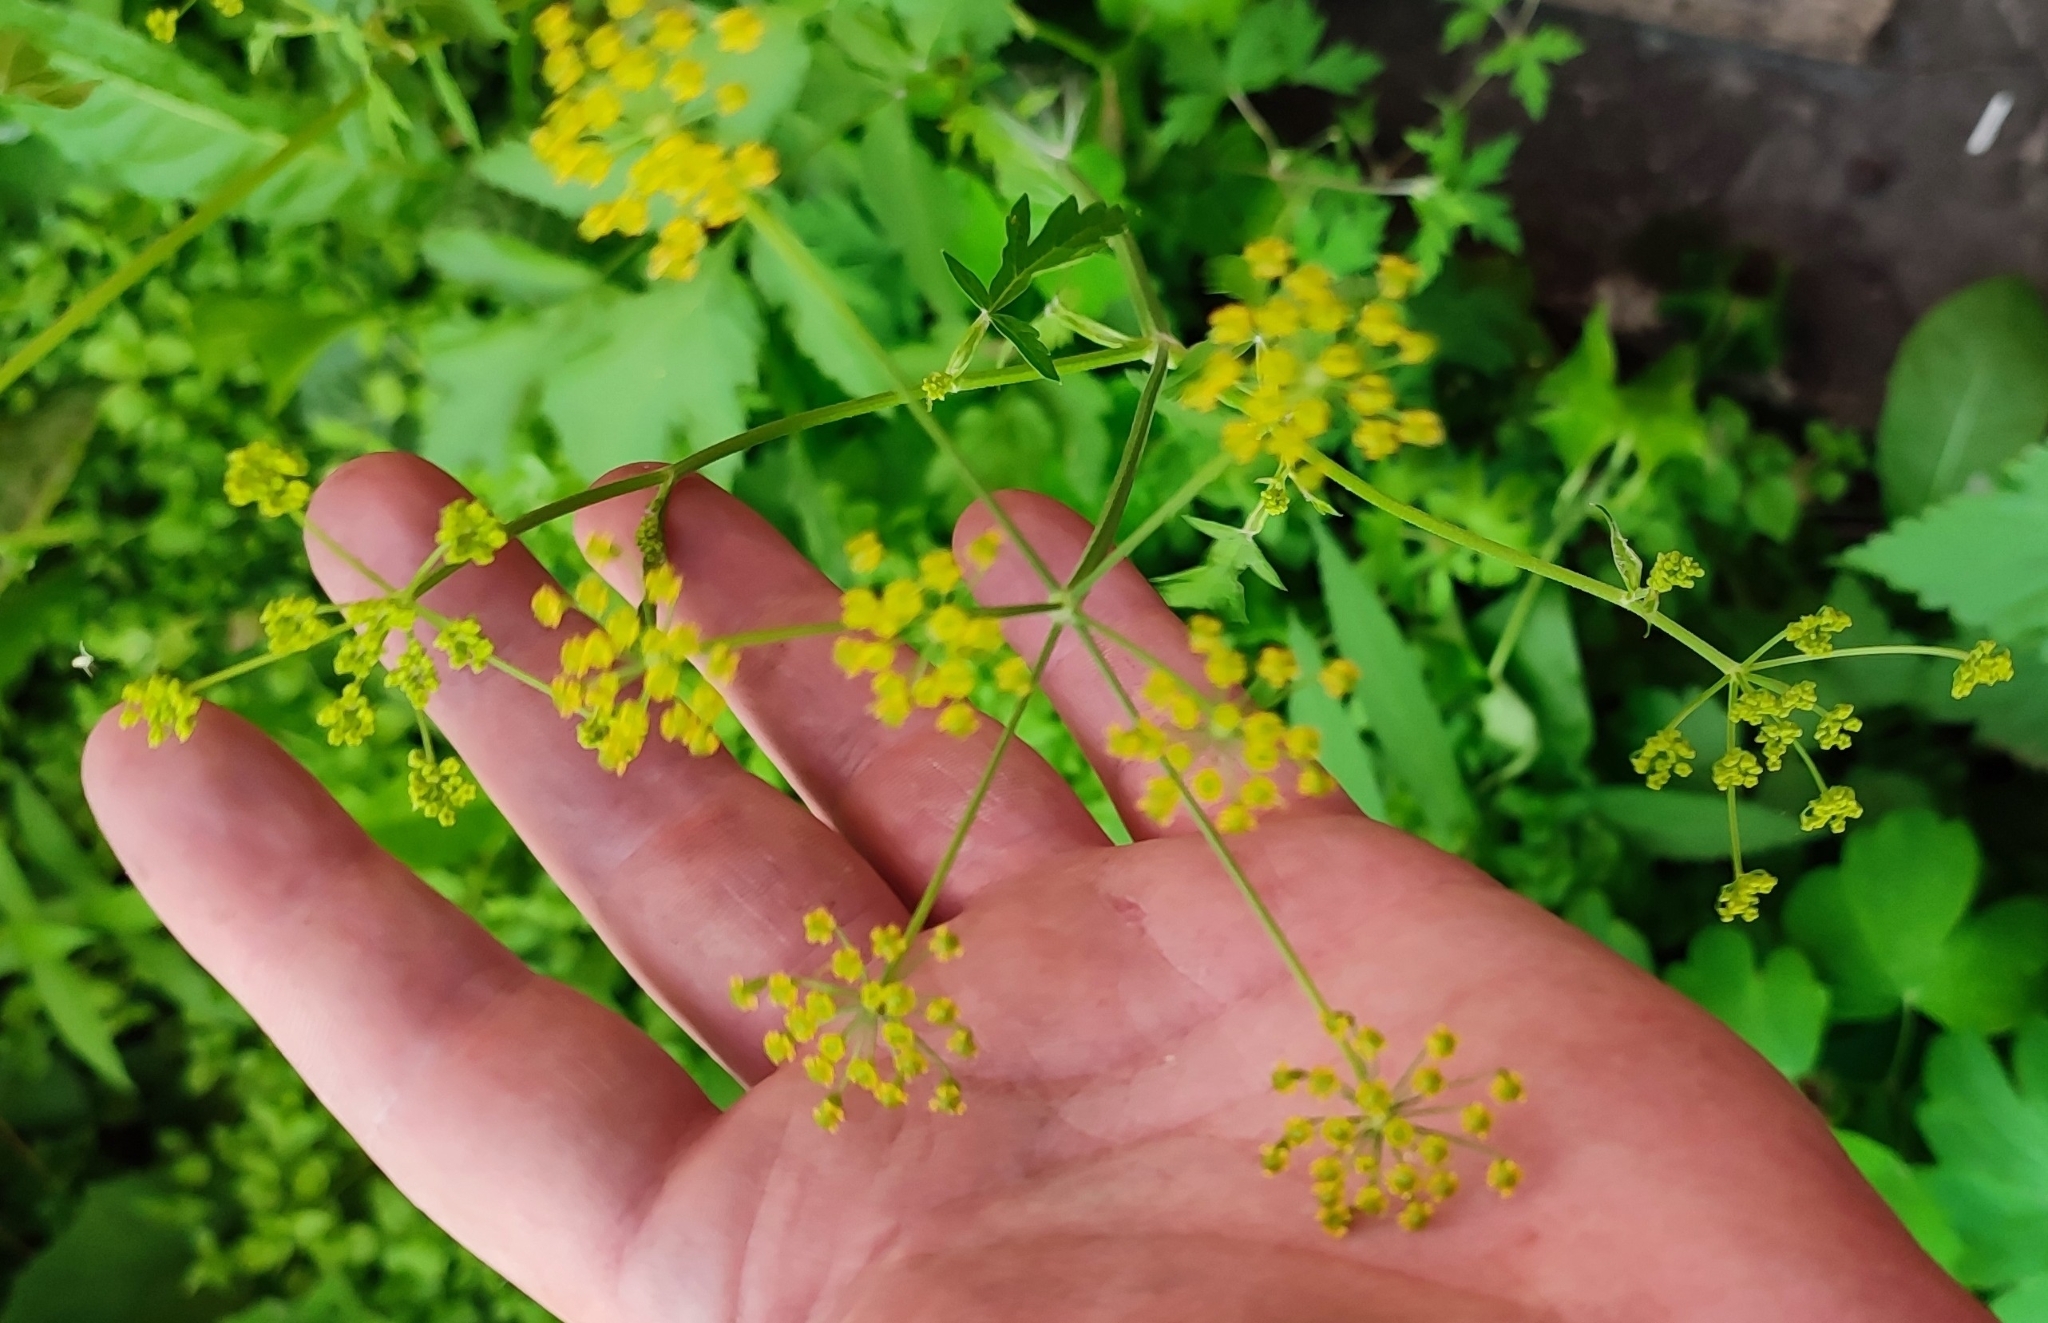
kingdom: Plantae
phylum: Tracheophyta
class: Magnoliopsida
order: Apiales
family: Apiaceae
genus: Pastinaca
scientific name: Pastinaca sativa
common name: Wild parsnip
